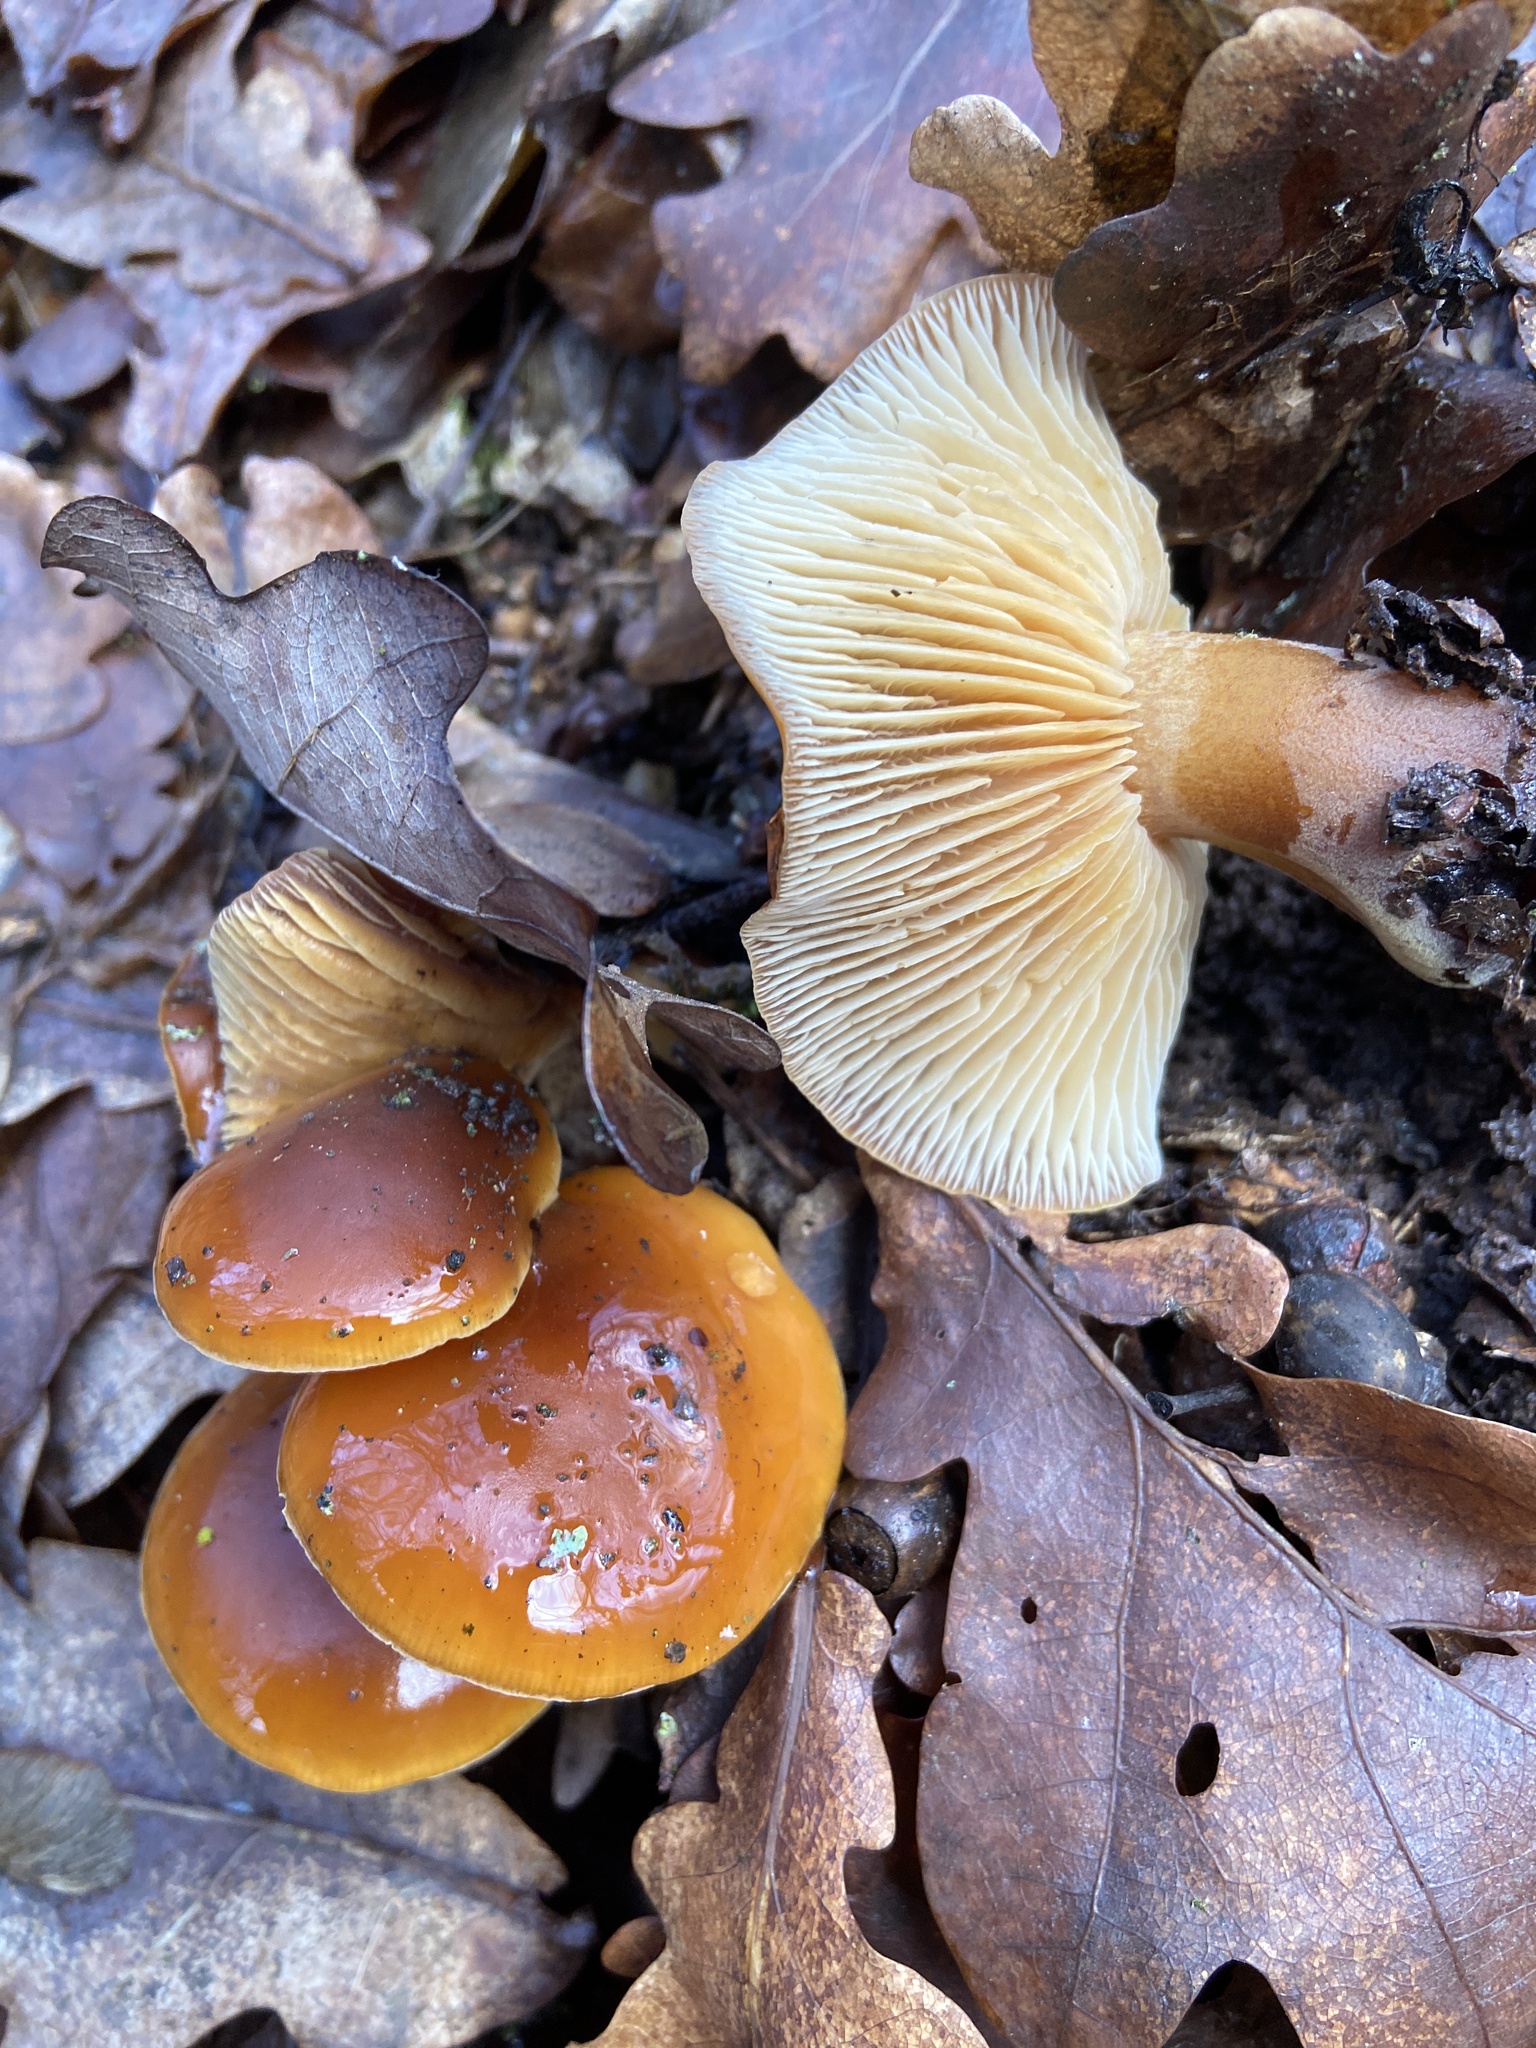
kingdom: Fungi
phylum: Basidiomycota
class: Agaricomycetes
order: Agaricales
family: Physalacriaceae
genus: Flammulina
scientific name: Flammulina
